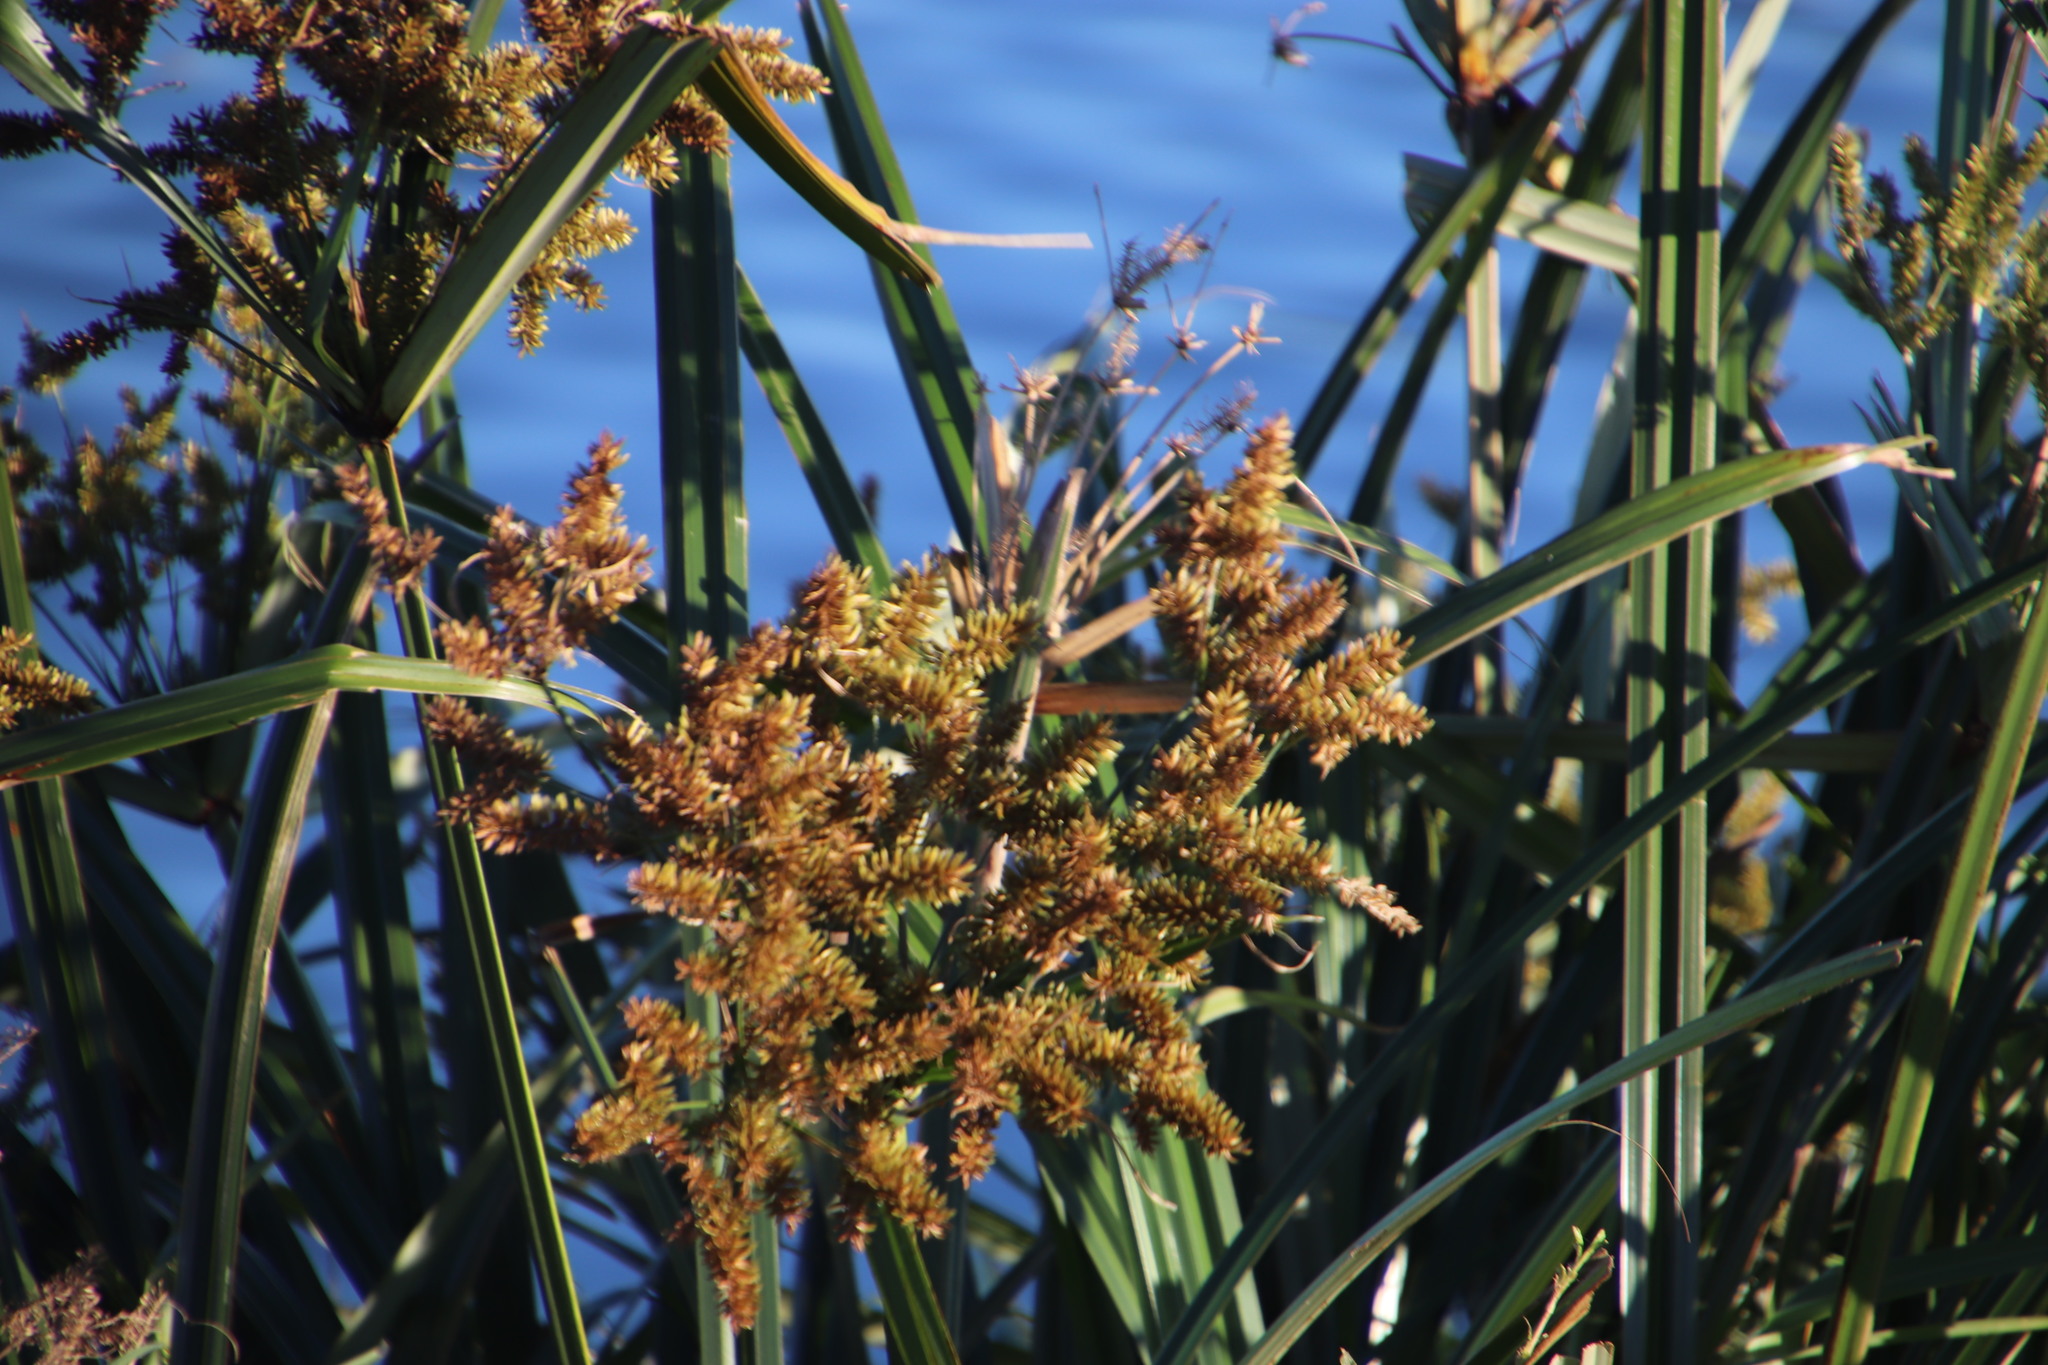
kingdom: Plantae
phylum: Tracheophyta
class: Liliopsida
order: Poales
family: Cyperaceae
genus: Cyperus
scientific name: Cyperus thunbergii
